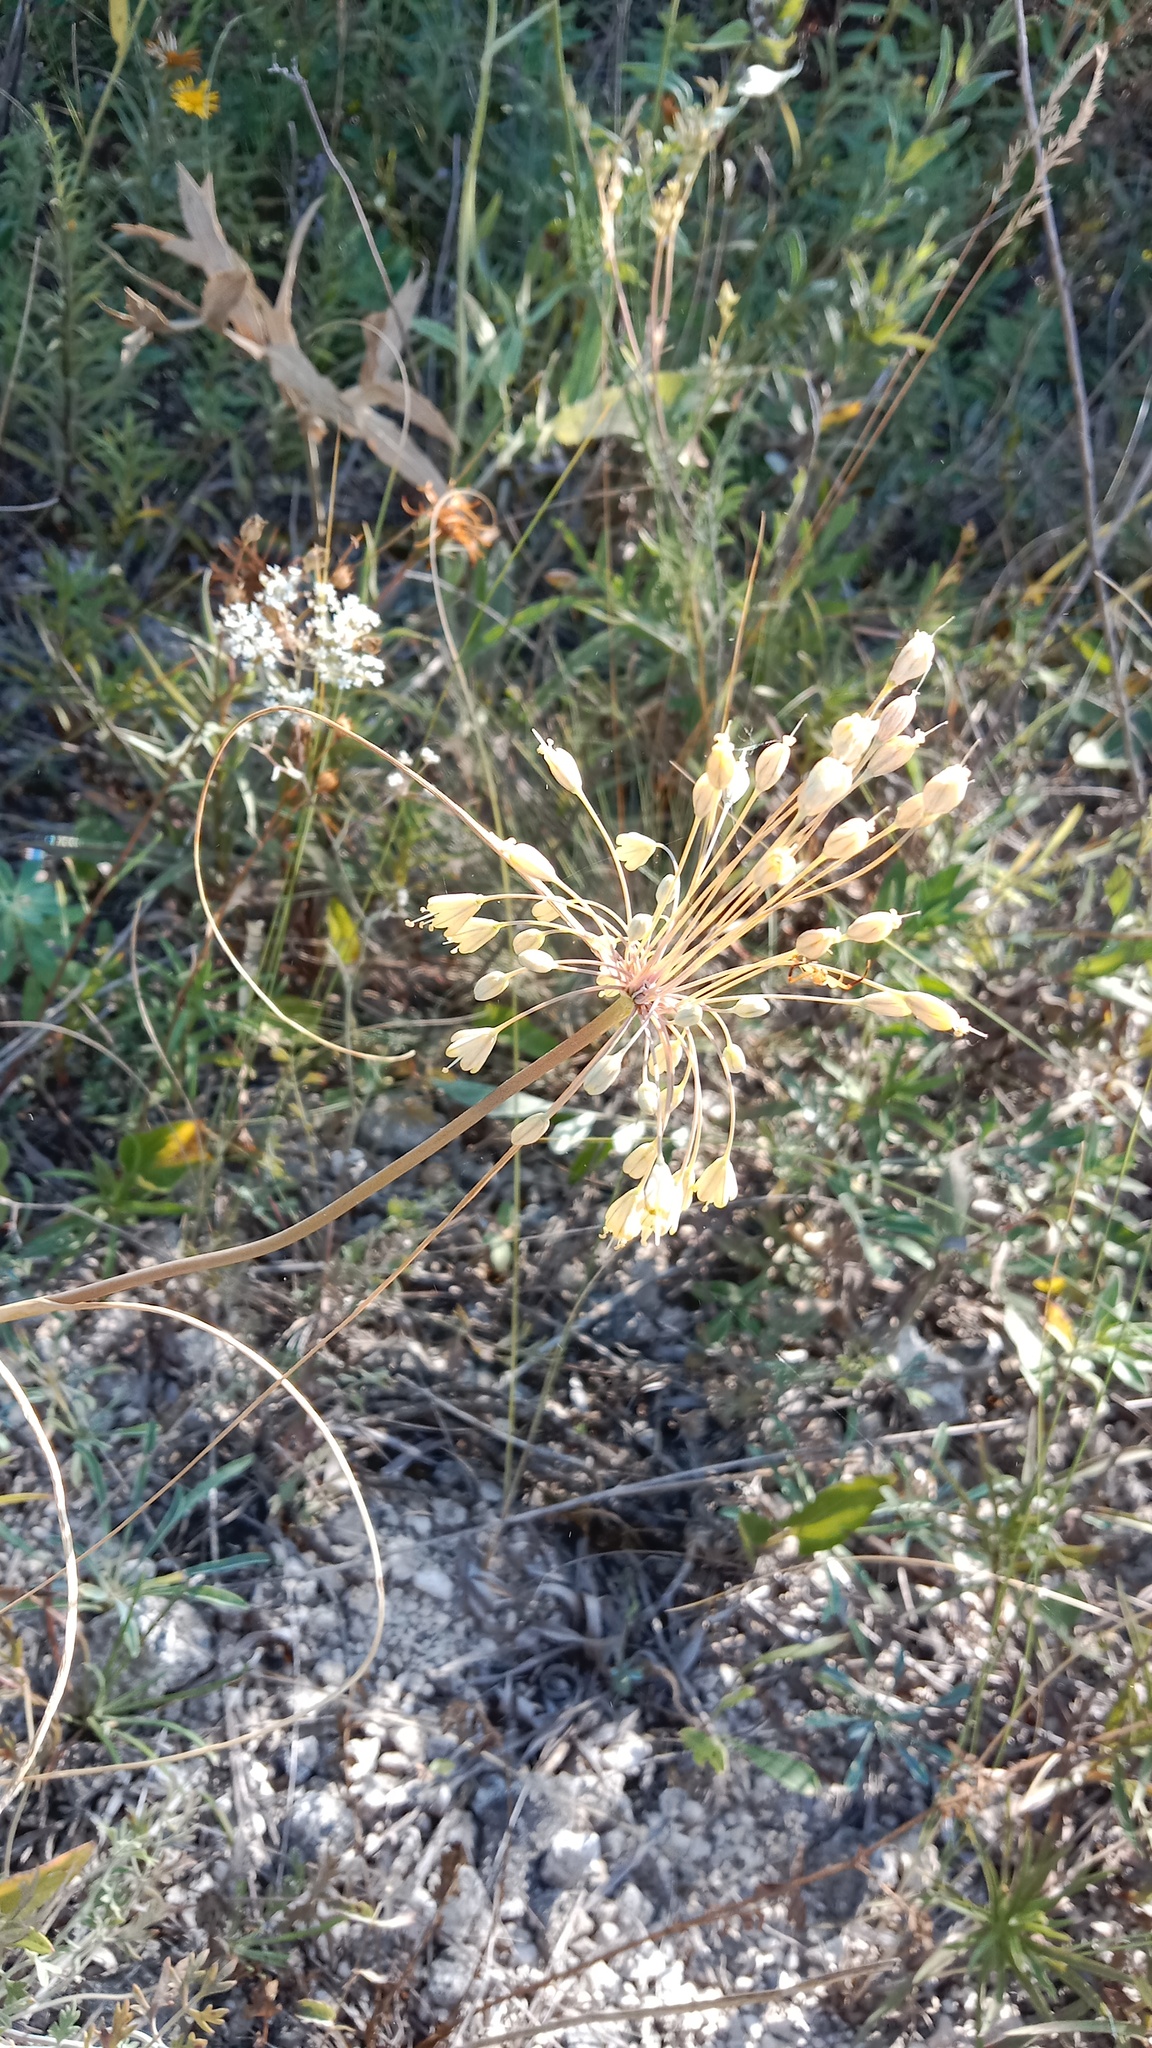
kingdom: Plantae
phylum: Tracheophyta
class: Liliopsida
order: Asparagales
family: Amaryllidaceae
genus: Allium
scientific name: Allium flavum
